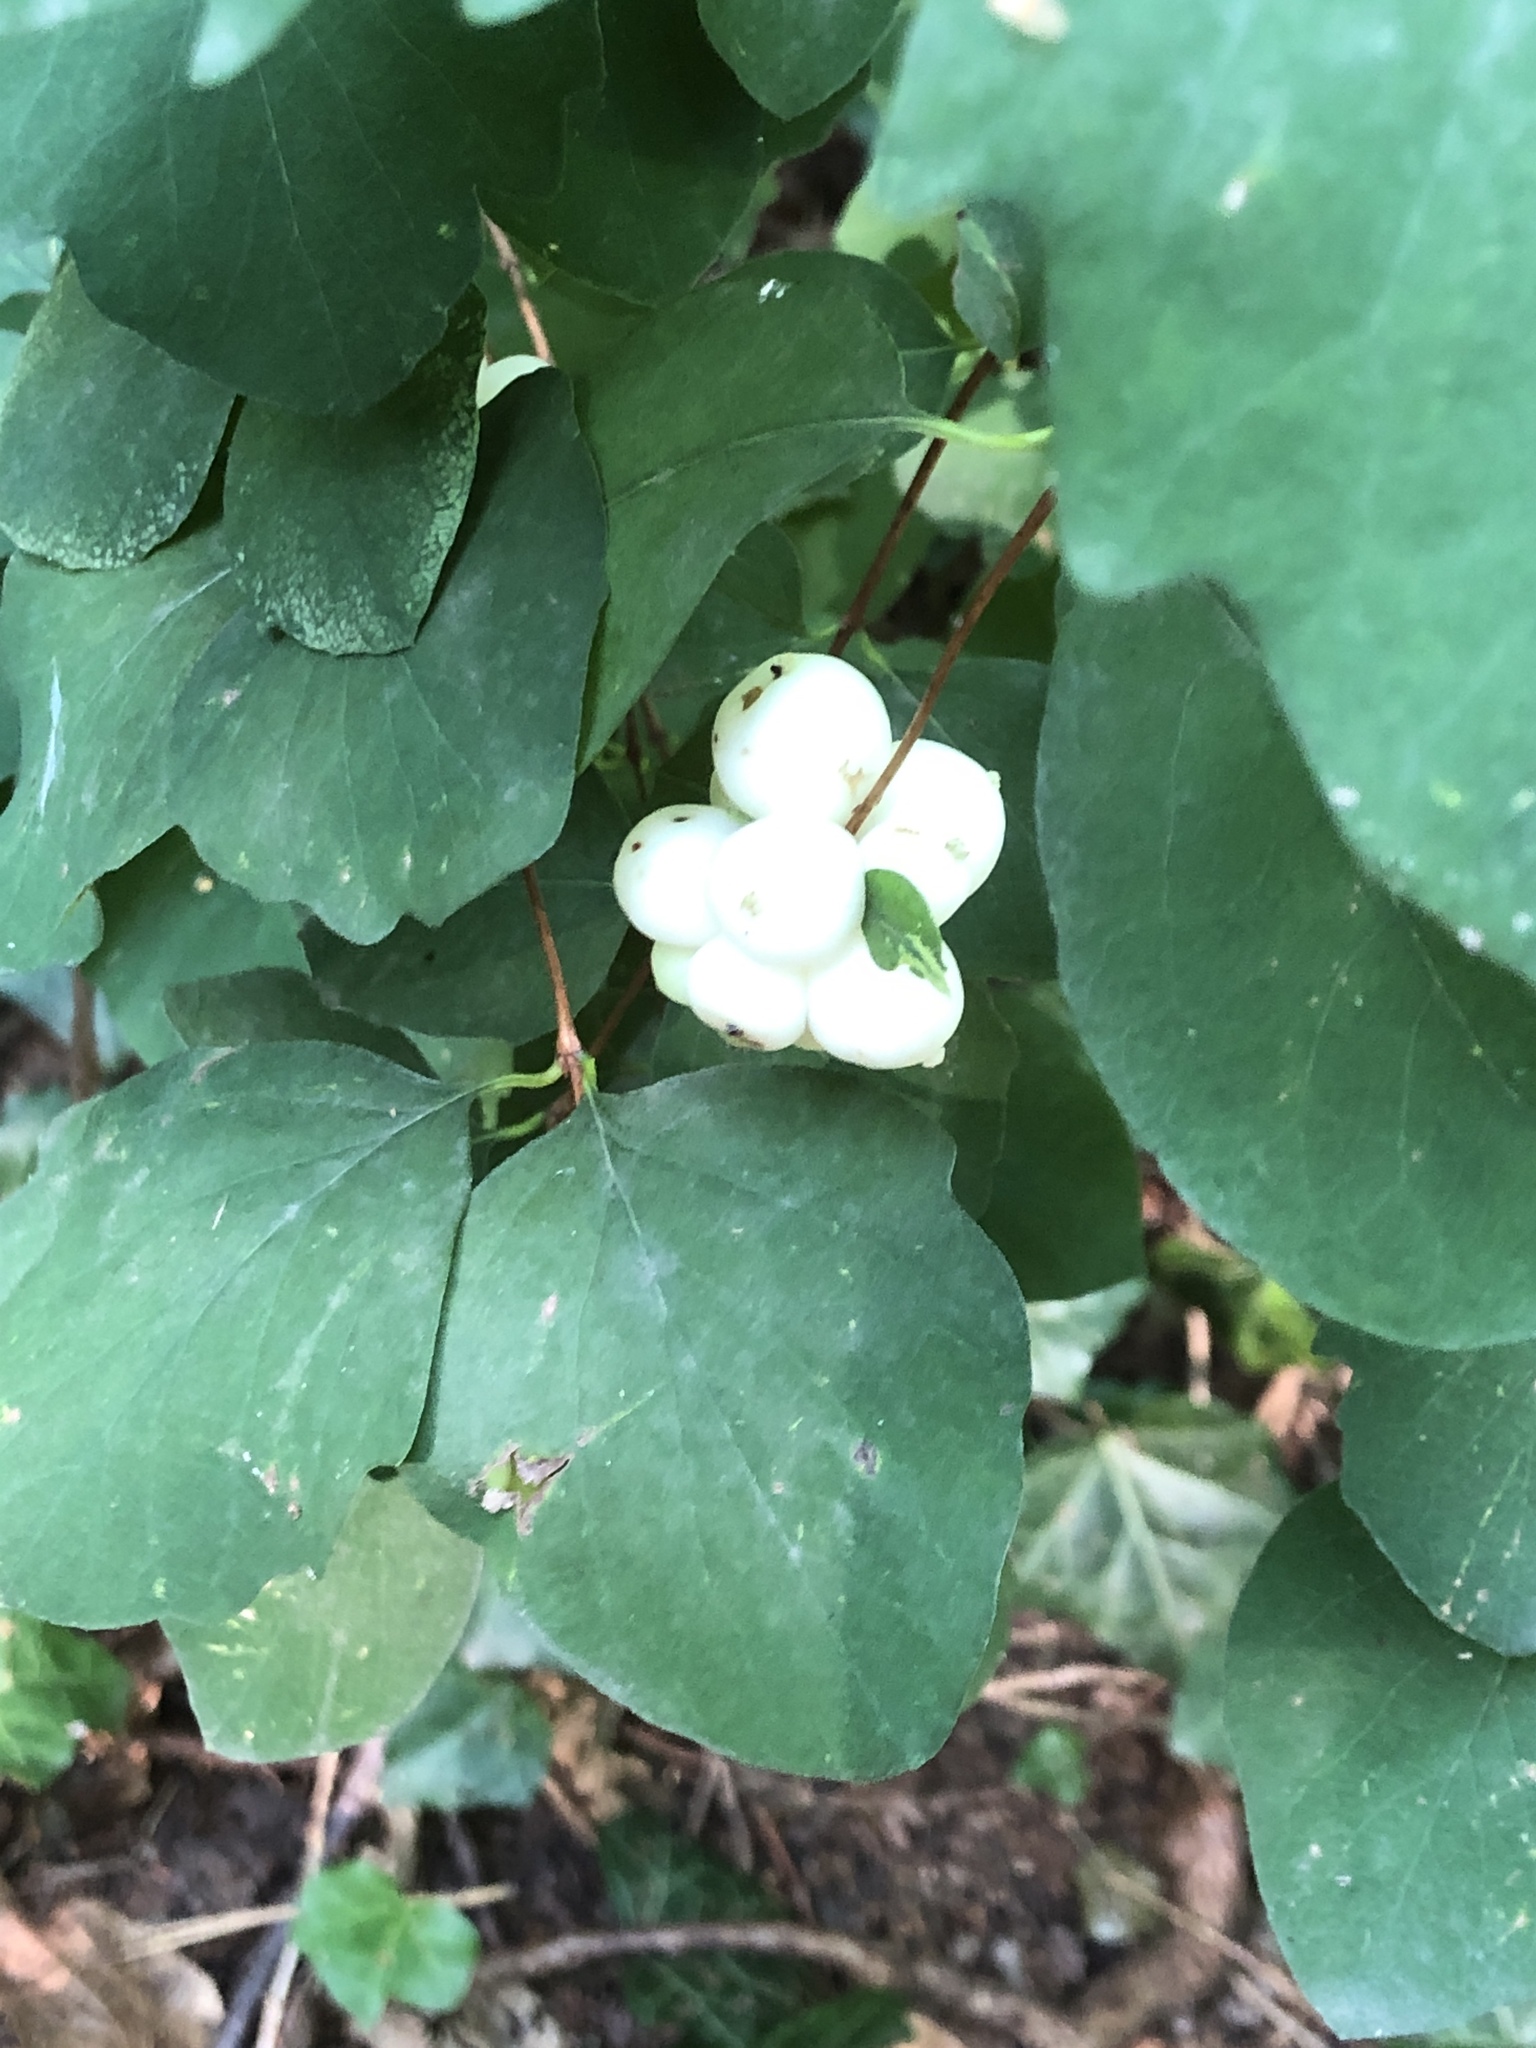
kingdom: Plantae
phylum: Tracheophyta
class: Magnoliopsida
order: Dipsacales
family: Caprifoliaceae
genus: Symphoricarpos
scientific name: Symphoricarpos albus
